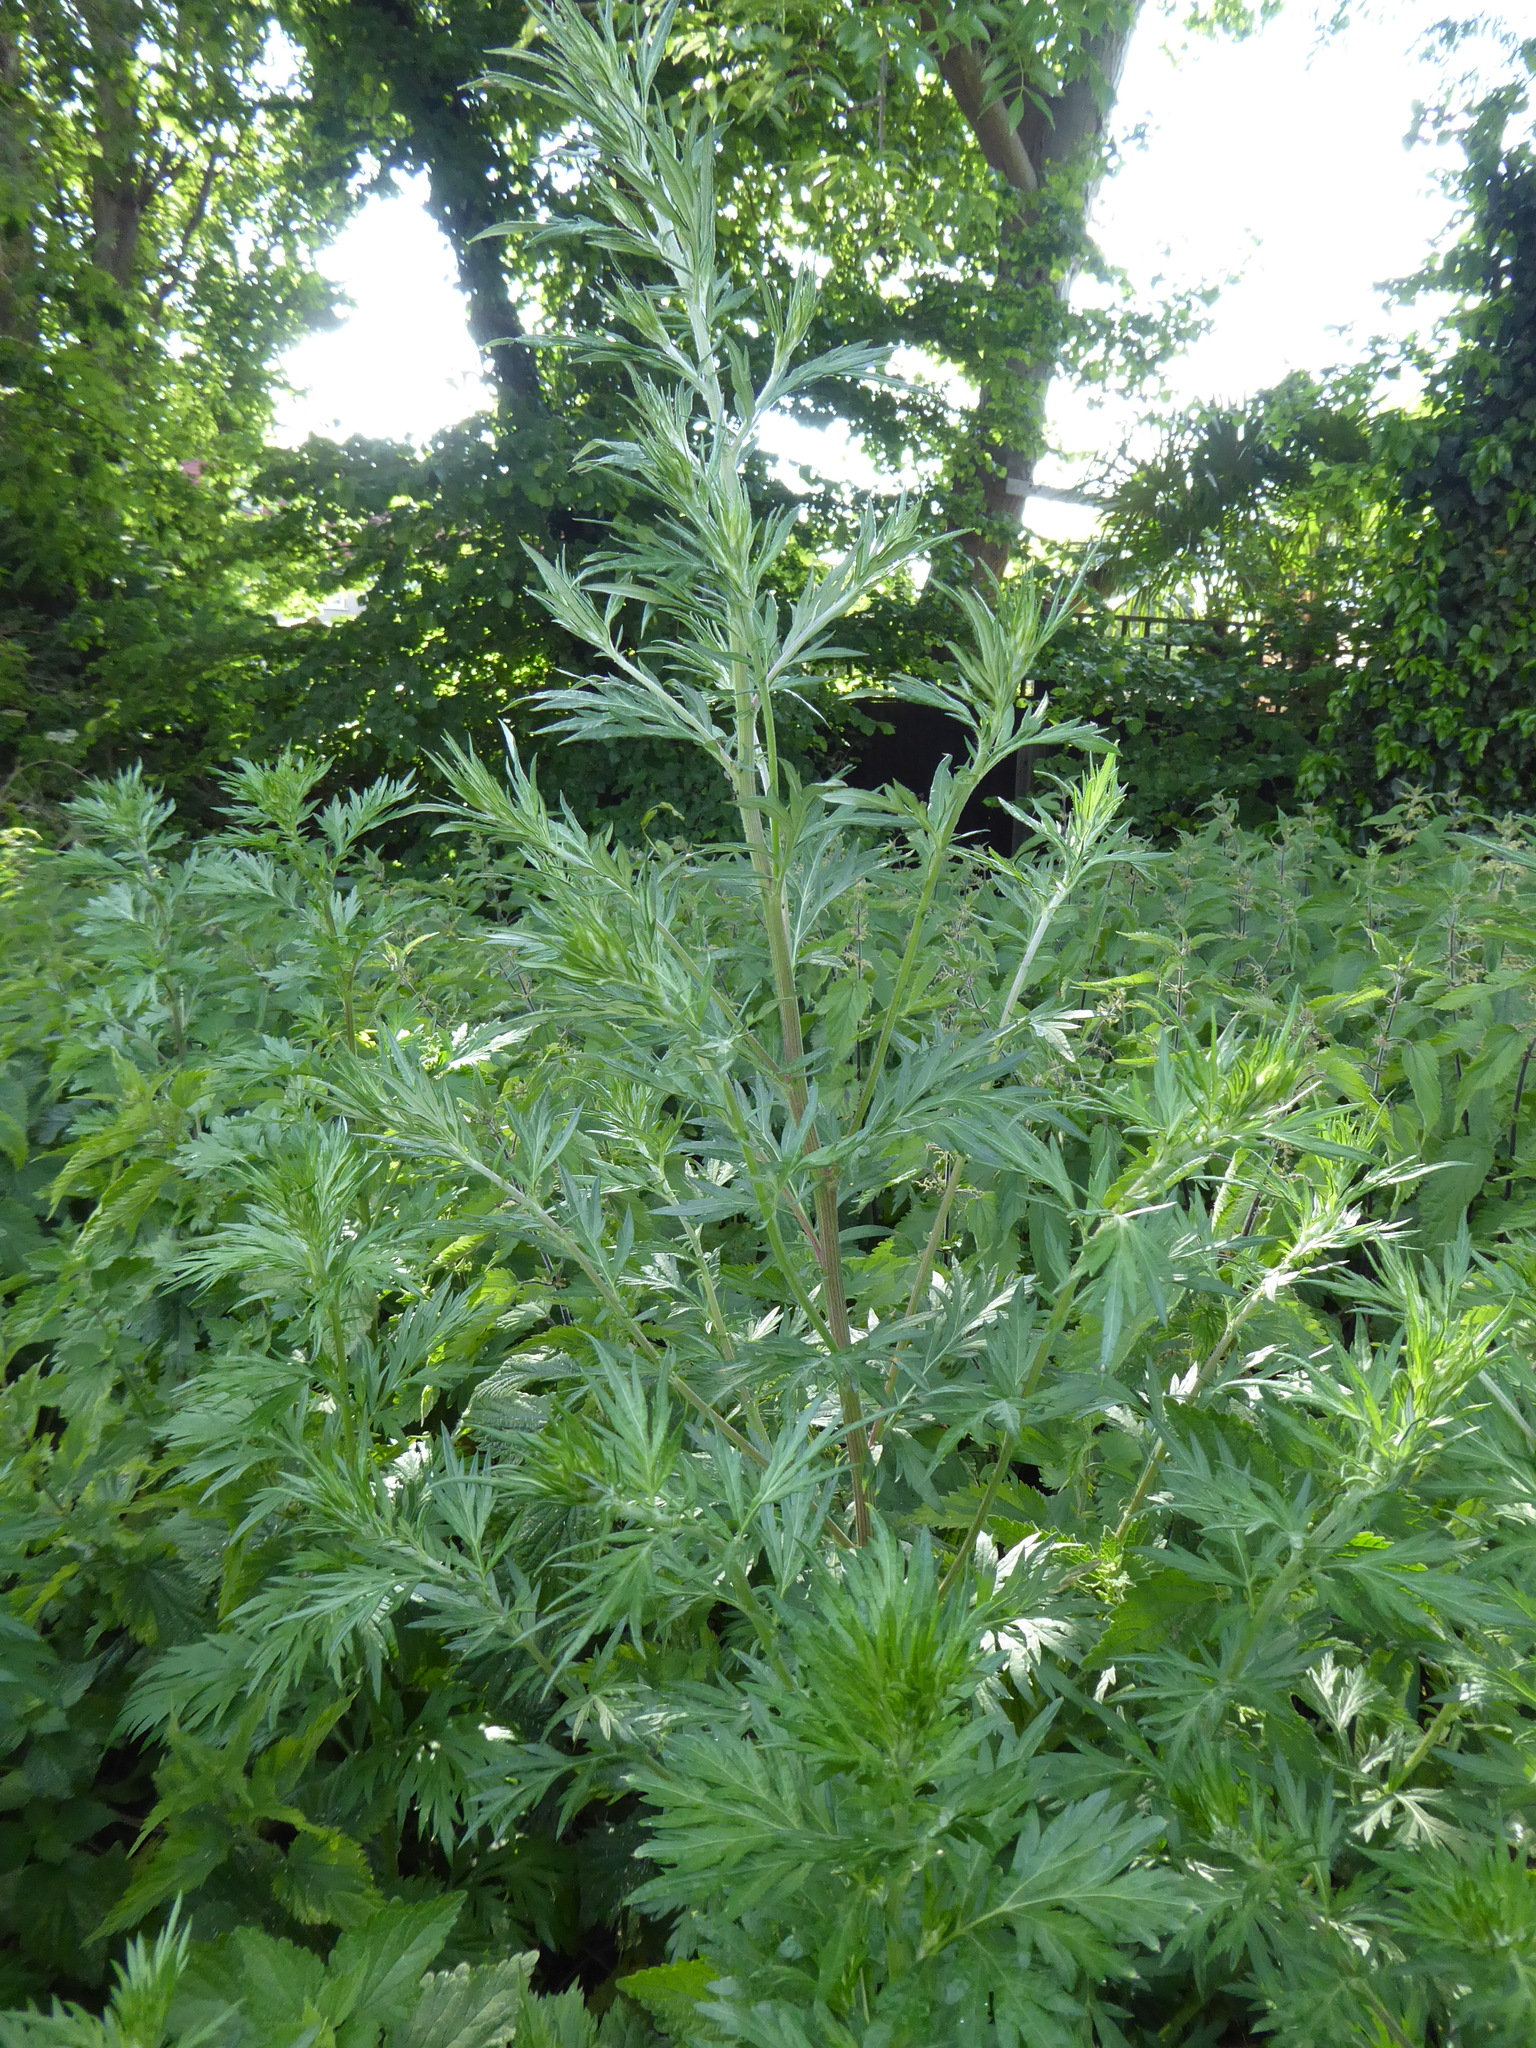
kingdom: Plantae
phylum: Tracheophyta
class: Magnoliopsida
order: Asterales
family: Asteraceae
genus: Artemisia
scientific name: Artemisia vulgaris
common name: Mugwort
